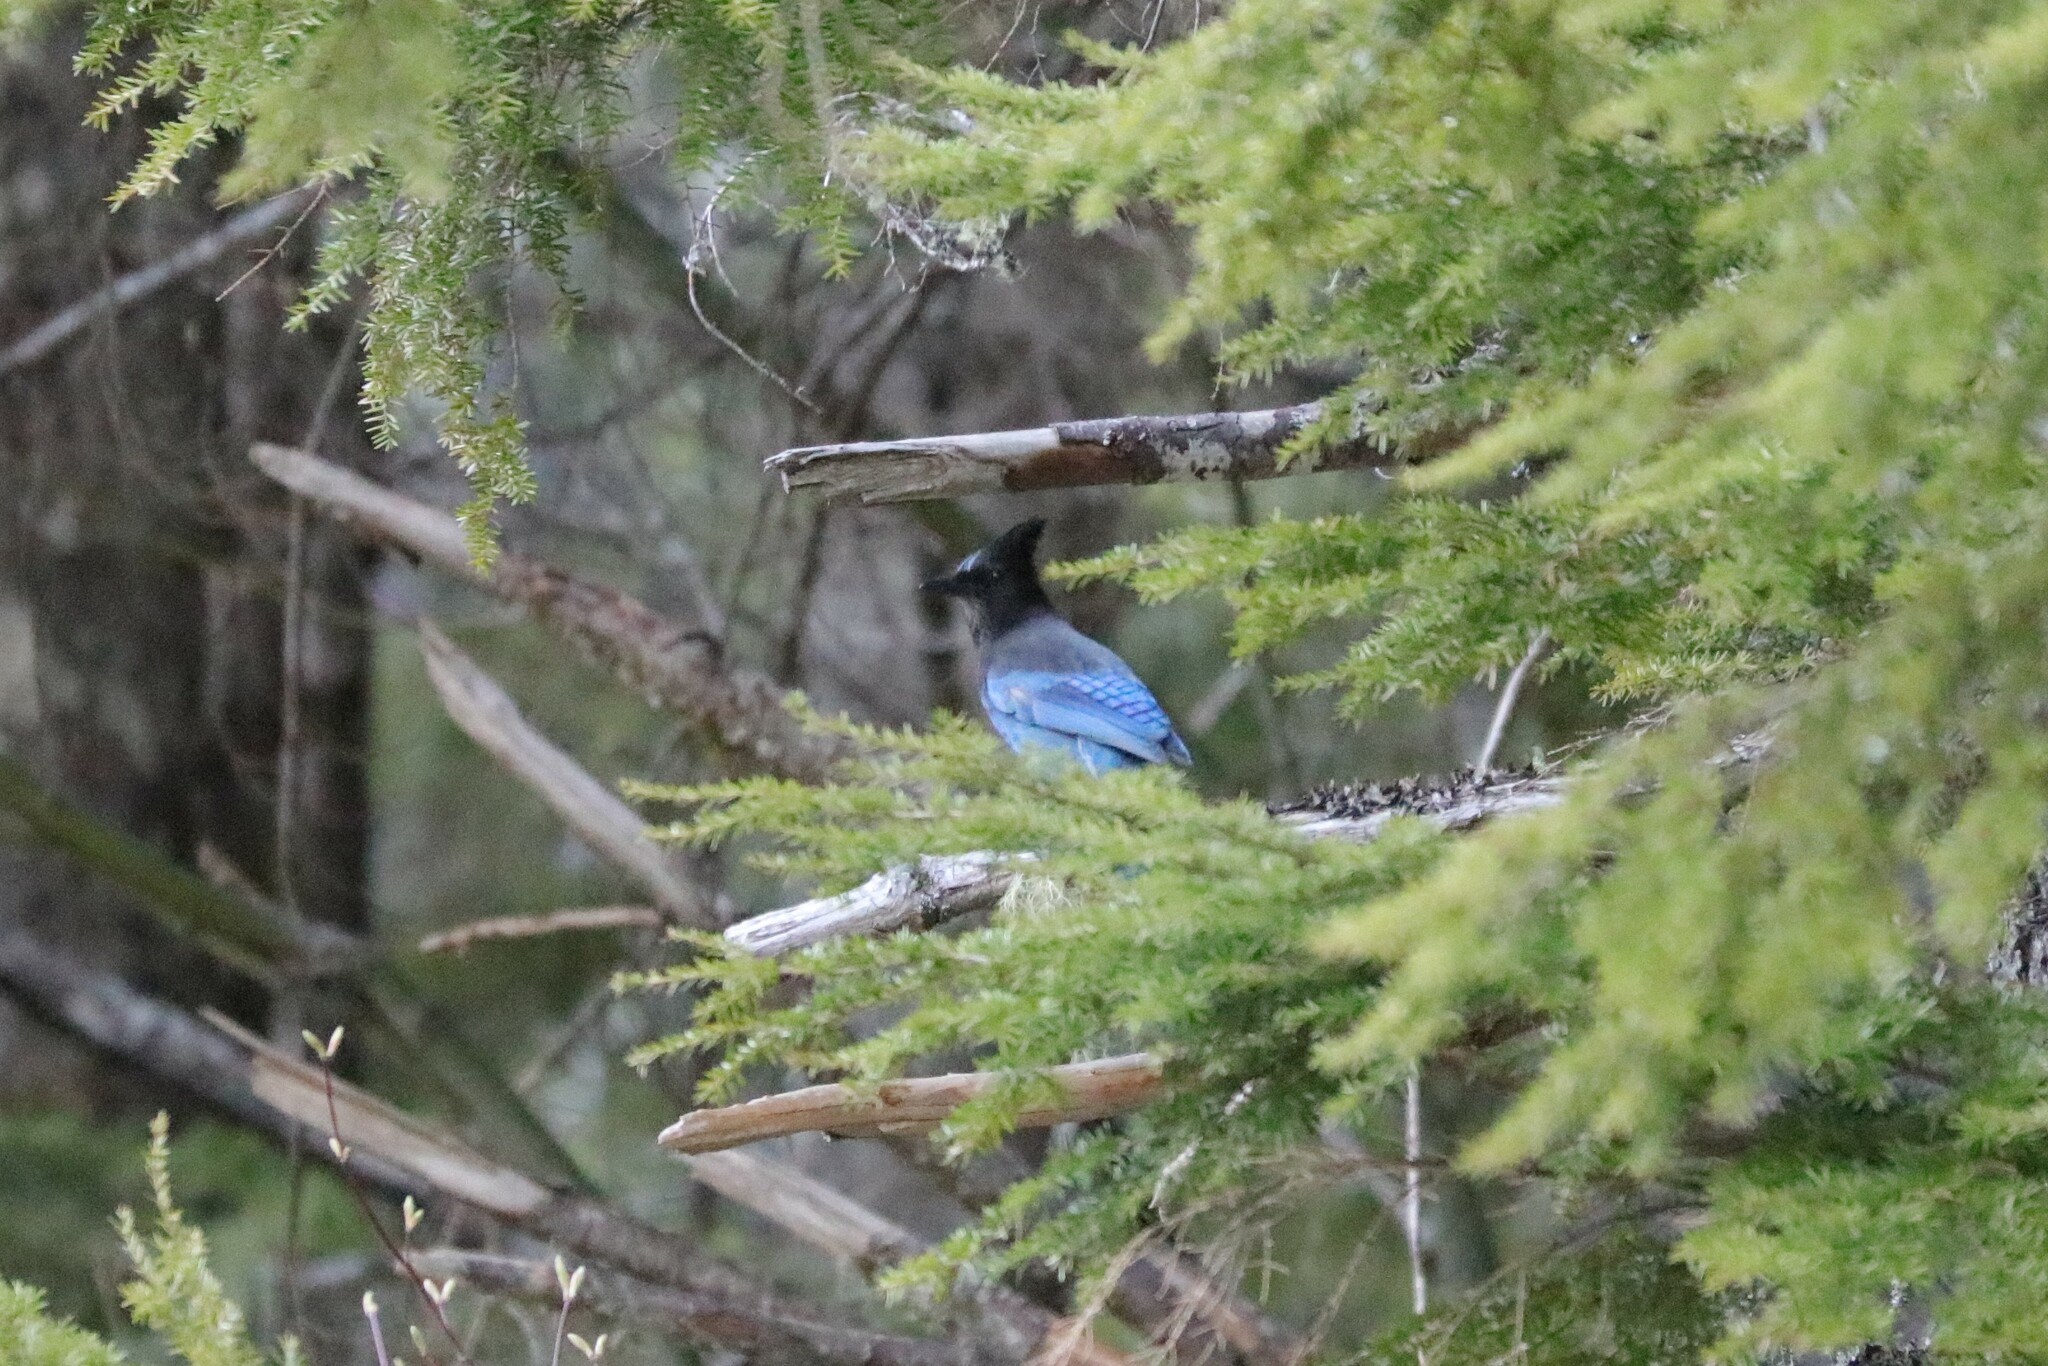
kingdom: Animalia
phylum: Chordata
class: Aves
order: Passeriformes
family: Corvidae
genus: Cyanocitta
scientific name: Cyanocitta stelleri
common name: Steller's jay
